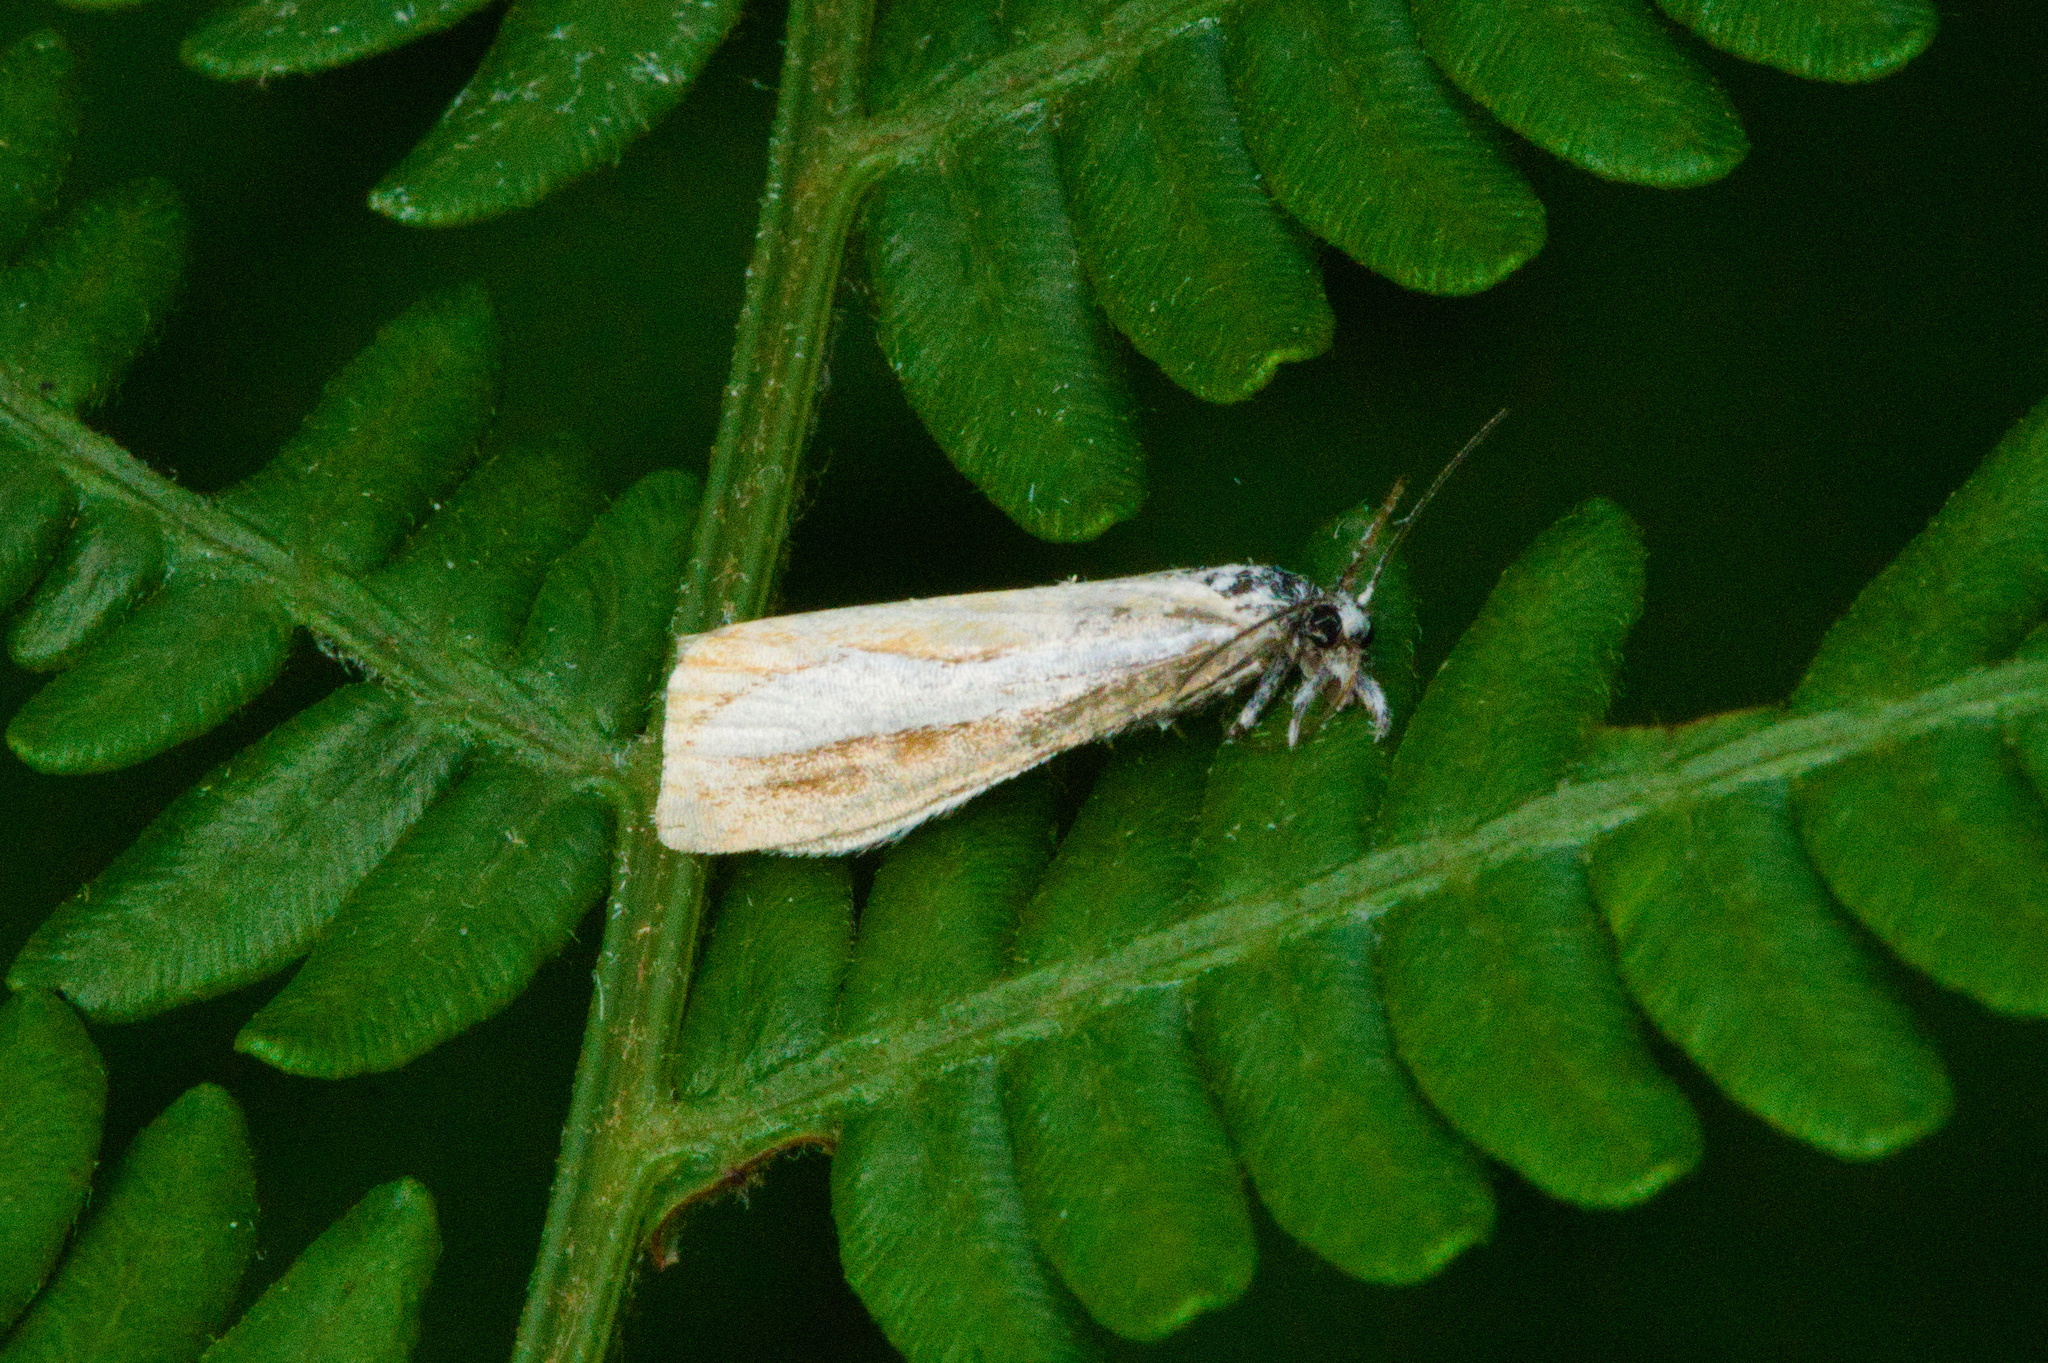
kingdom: Animalia
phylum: Arthropoda
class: Insecta
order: Lepidoptera
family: Crambidae
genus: Catoptria
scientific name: Catoptria margaritellus
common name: Pearl-band grass veneer
